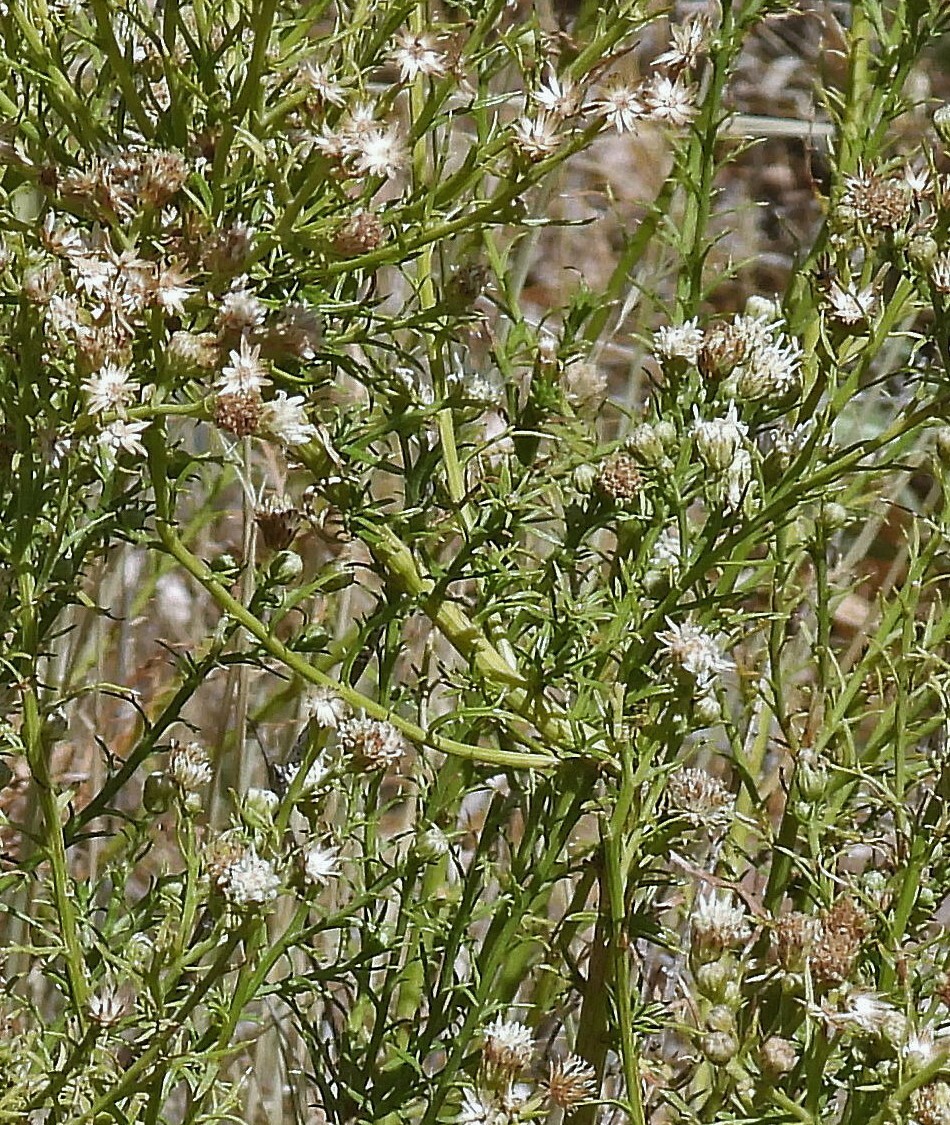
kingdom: Plantae
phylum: Tracheophyta
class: Magnoliopsida
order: Asterales
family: Asteraceae
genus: Baccharis
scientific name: Baccharis ulicina
